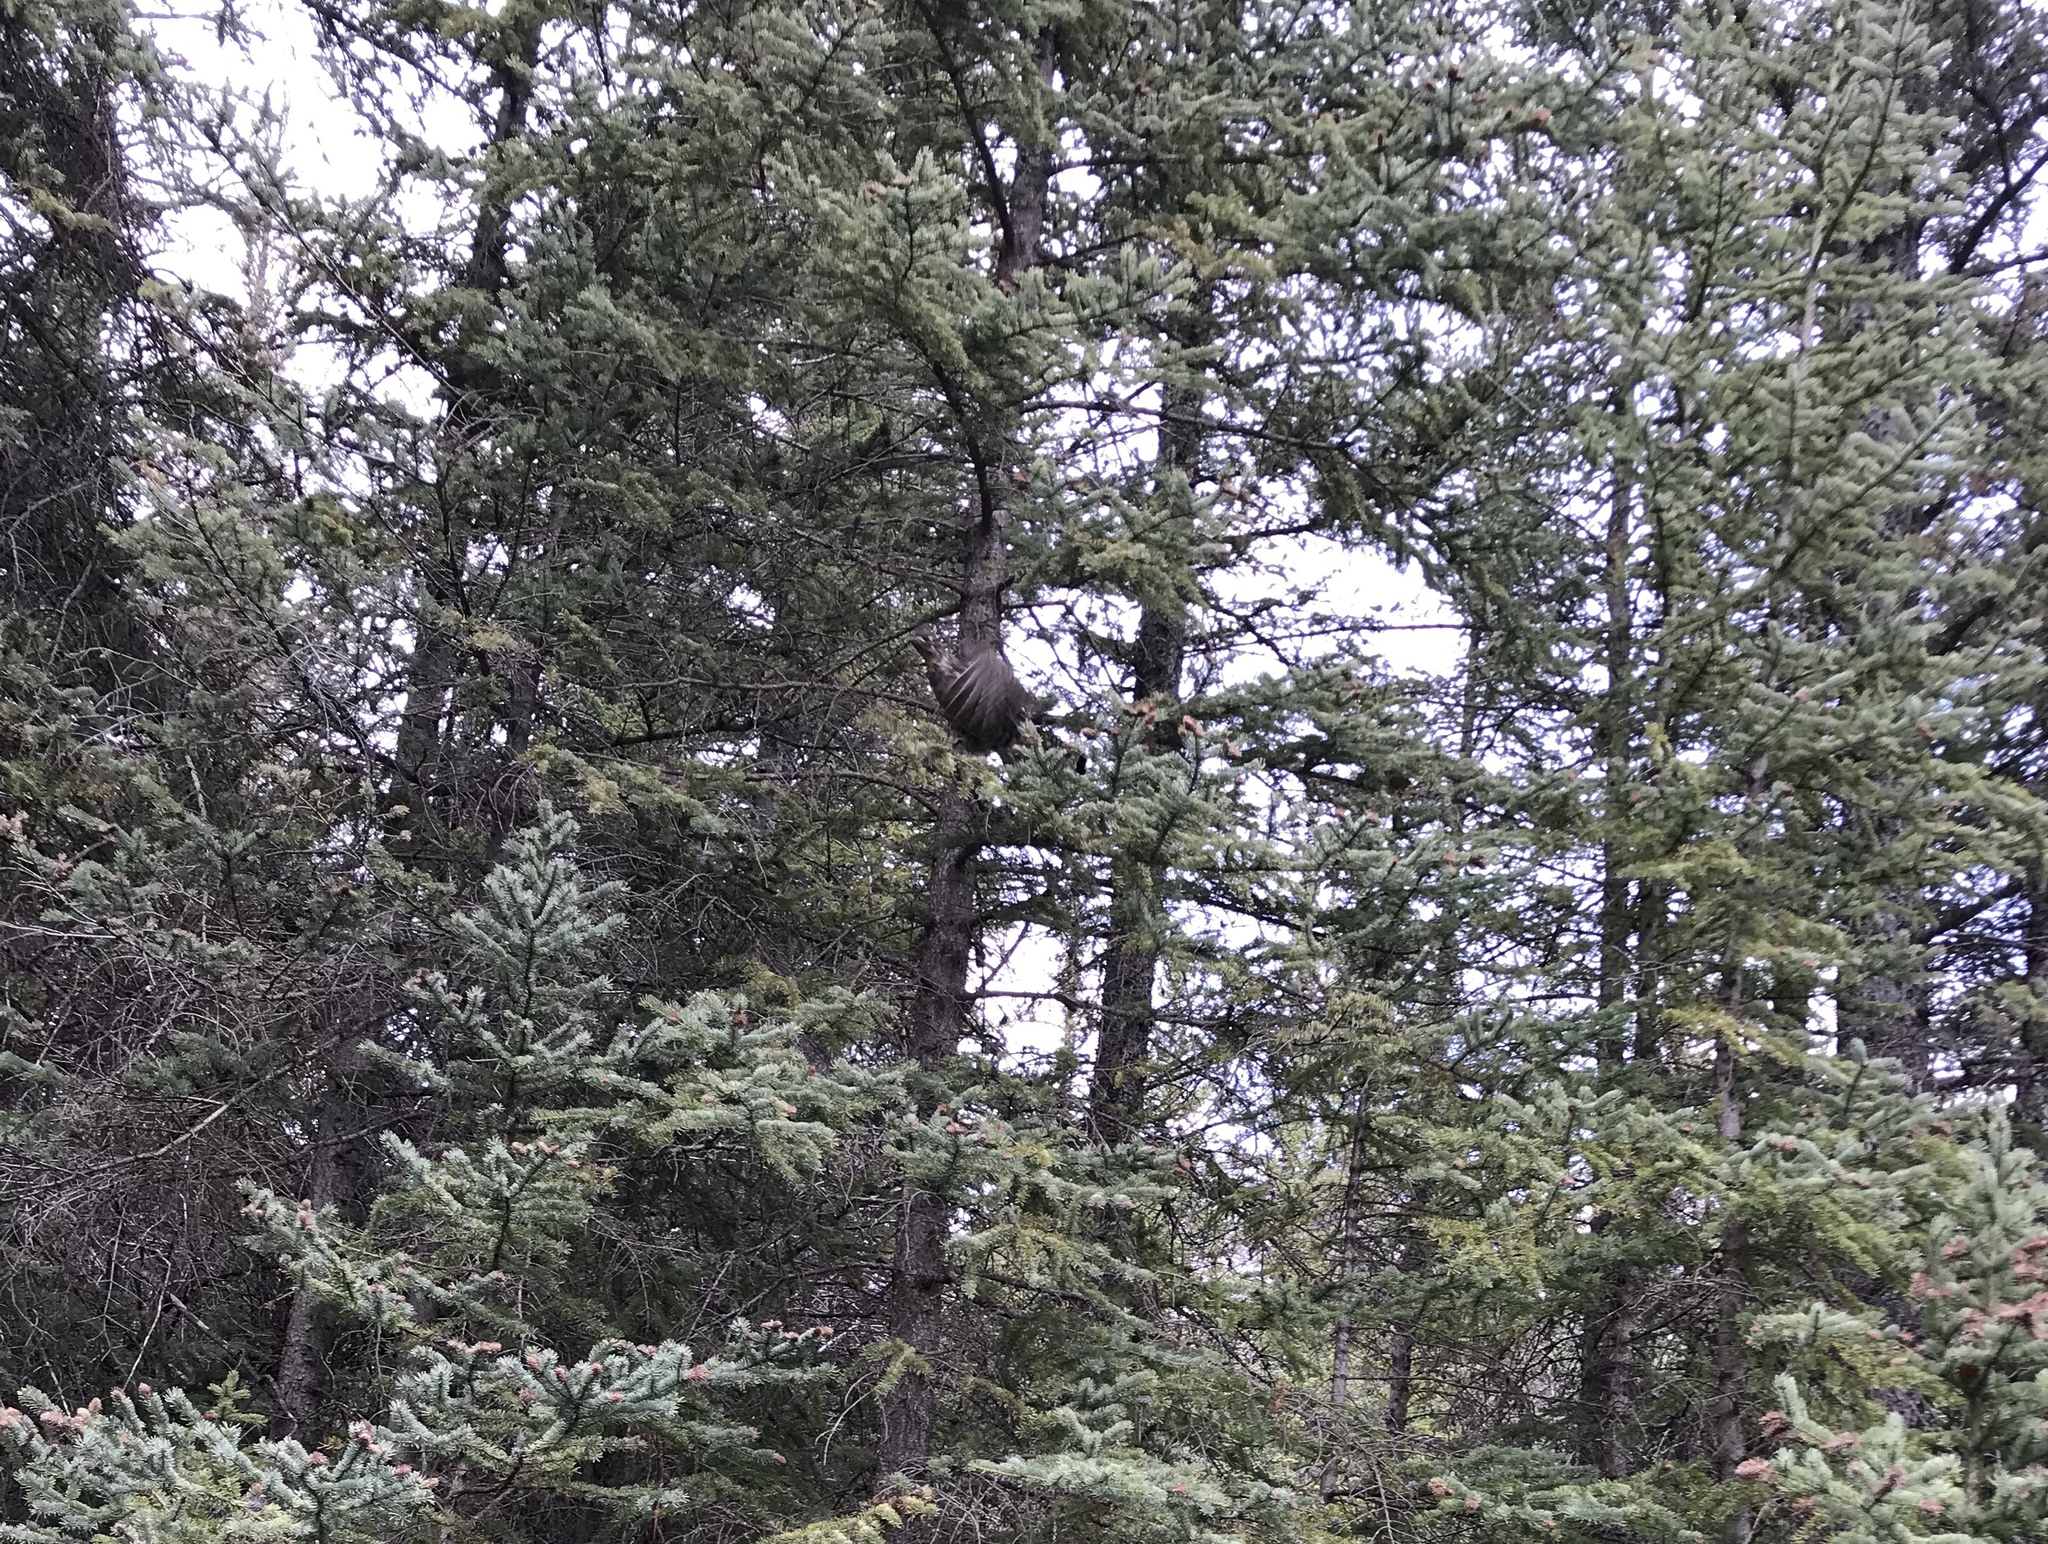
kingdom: Animalia
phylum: Chordata
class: Aves
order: Galliformes
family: Phasianidae
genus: Bonasa
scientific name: Bonasa umbellus
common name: Ruffed grouse
